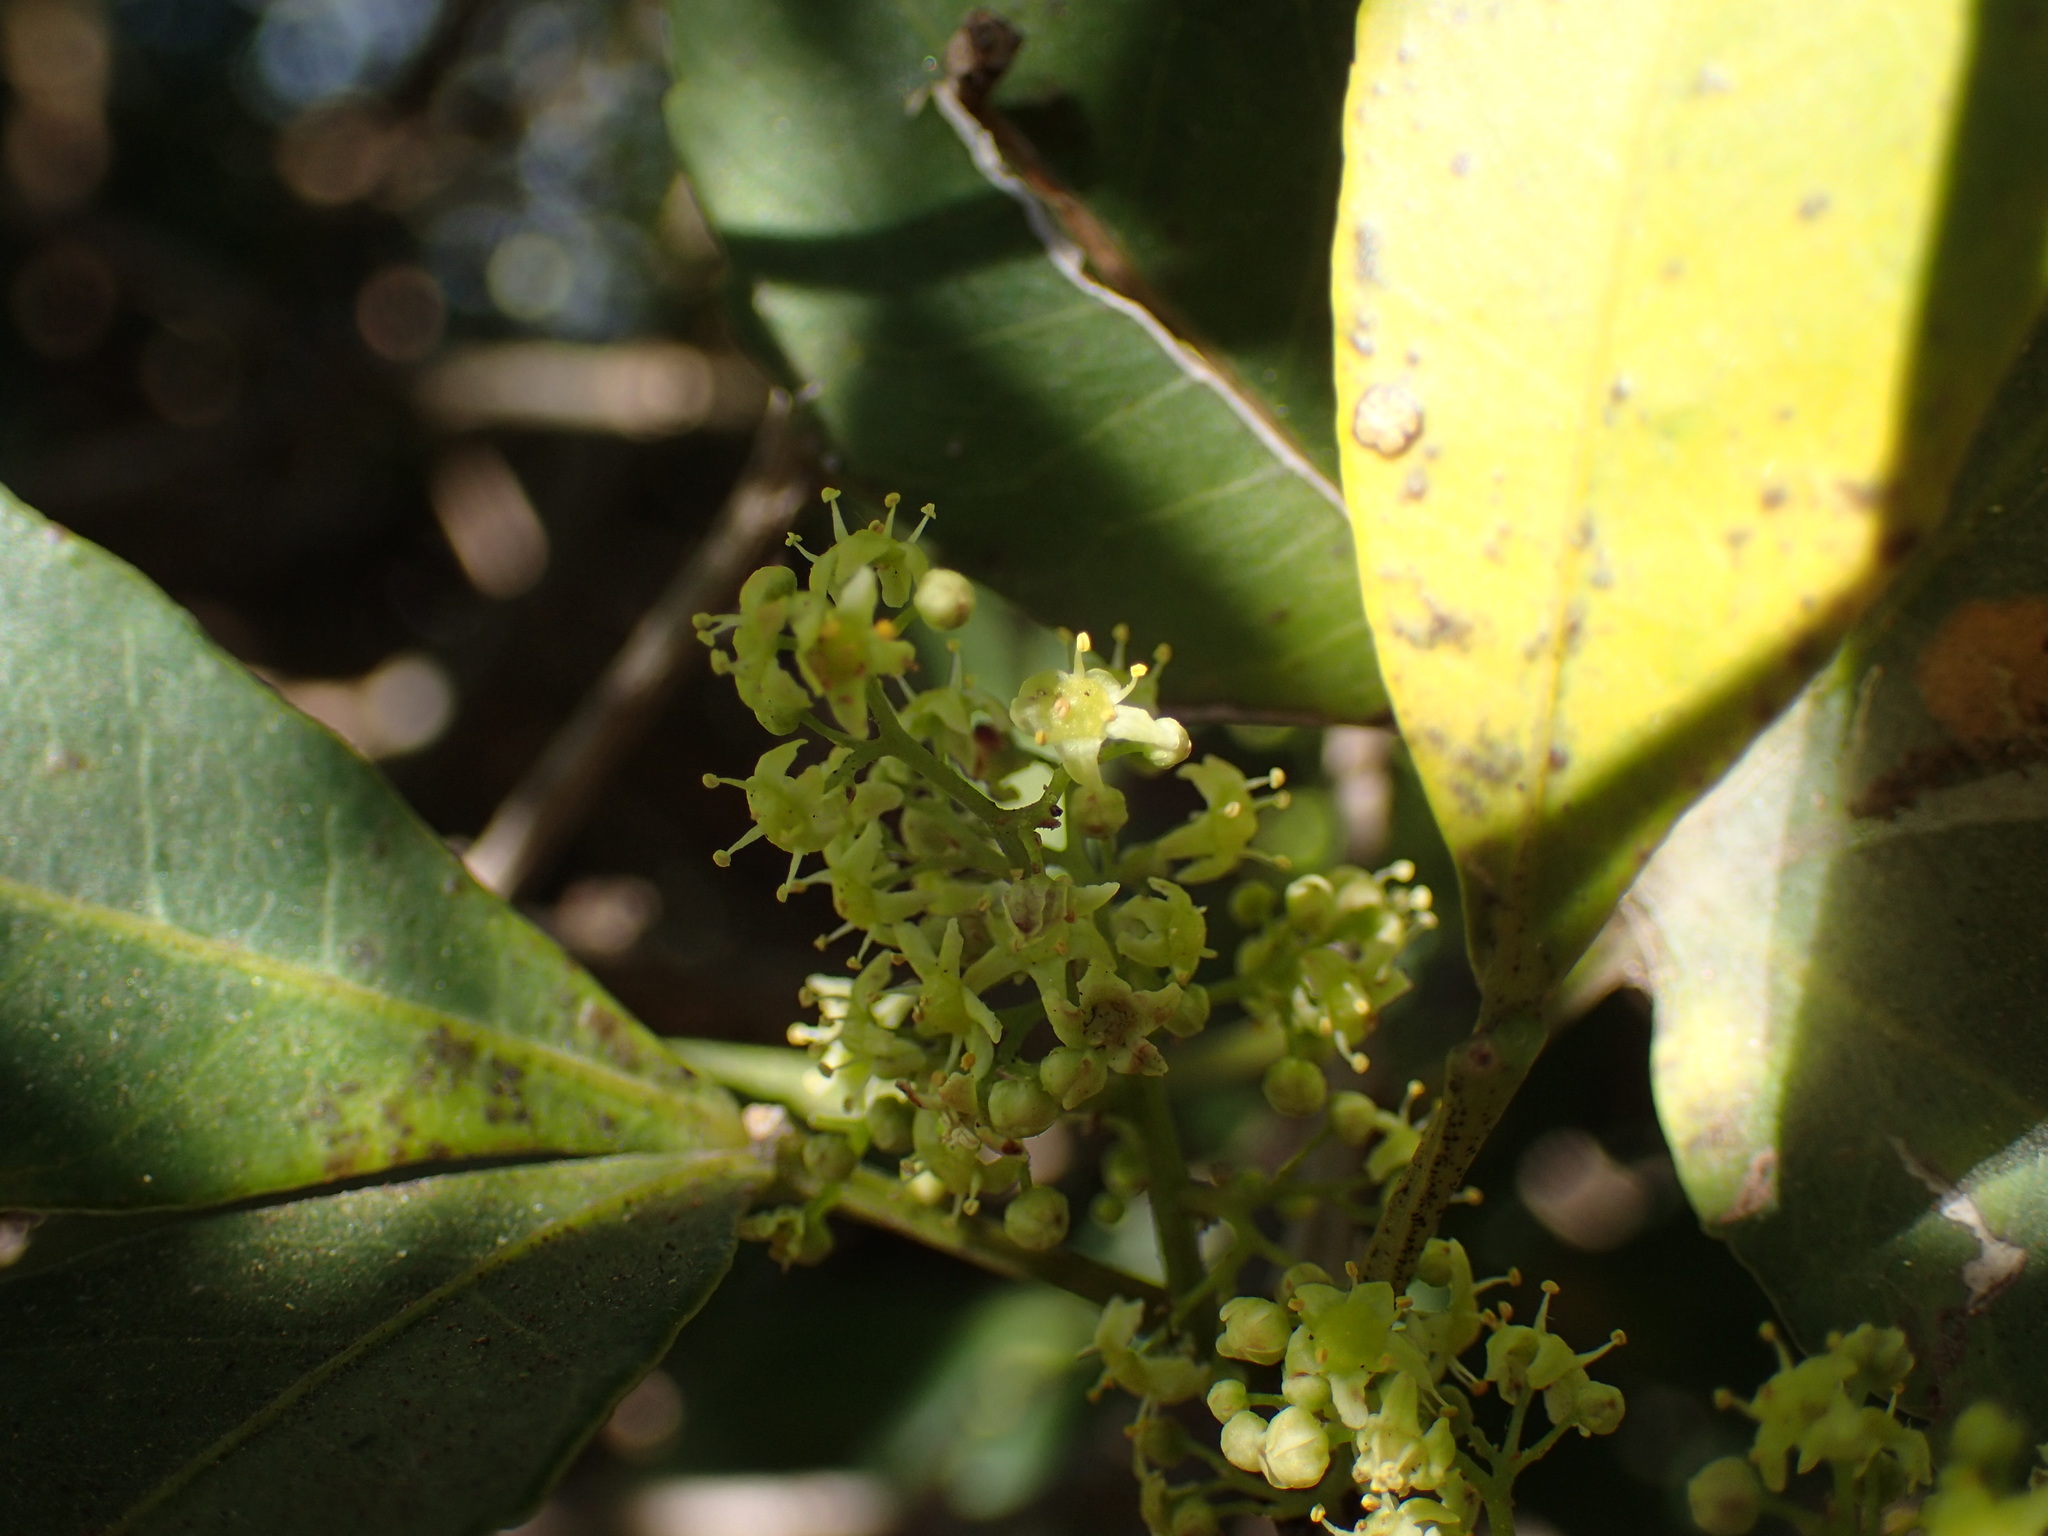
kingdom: Plantae
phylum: Tracheophyta
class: Magnoliopsida
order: Sapindales
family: Sapindaceae
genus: Allophylus
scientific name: Allophylus natalensis
